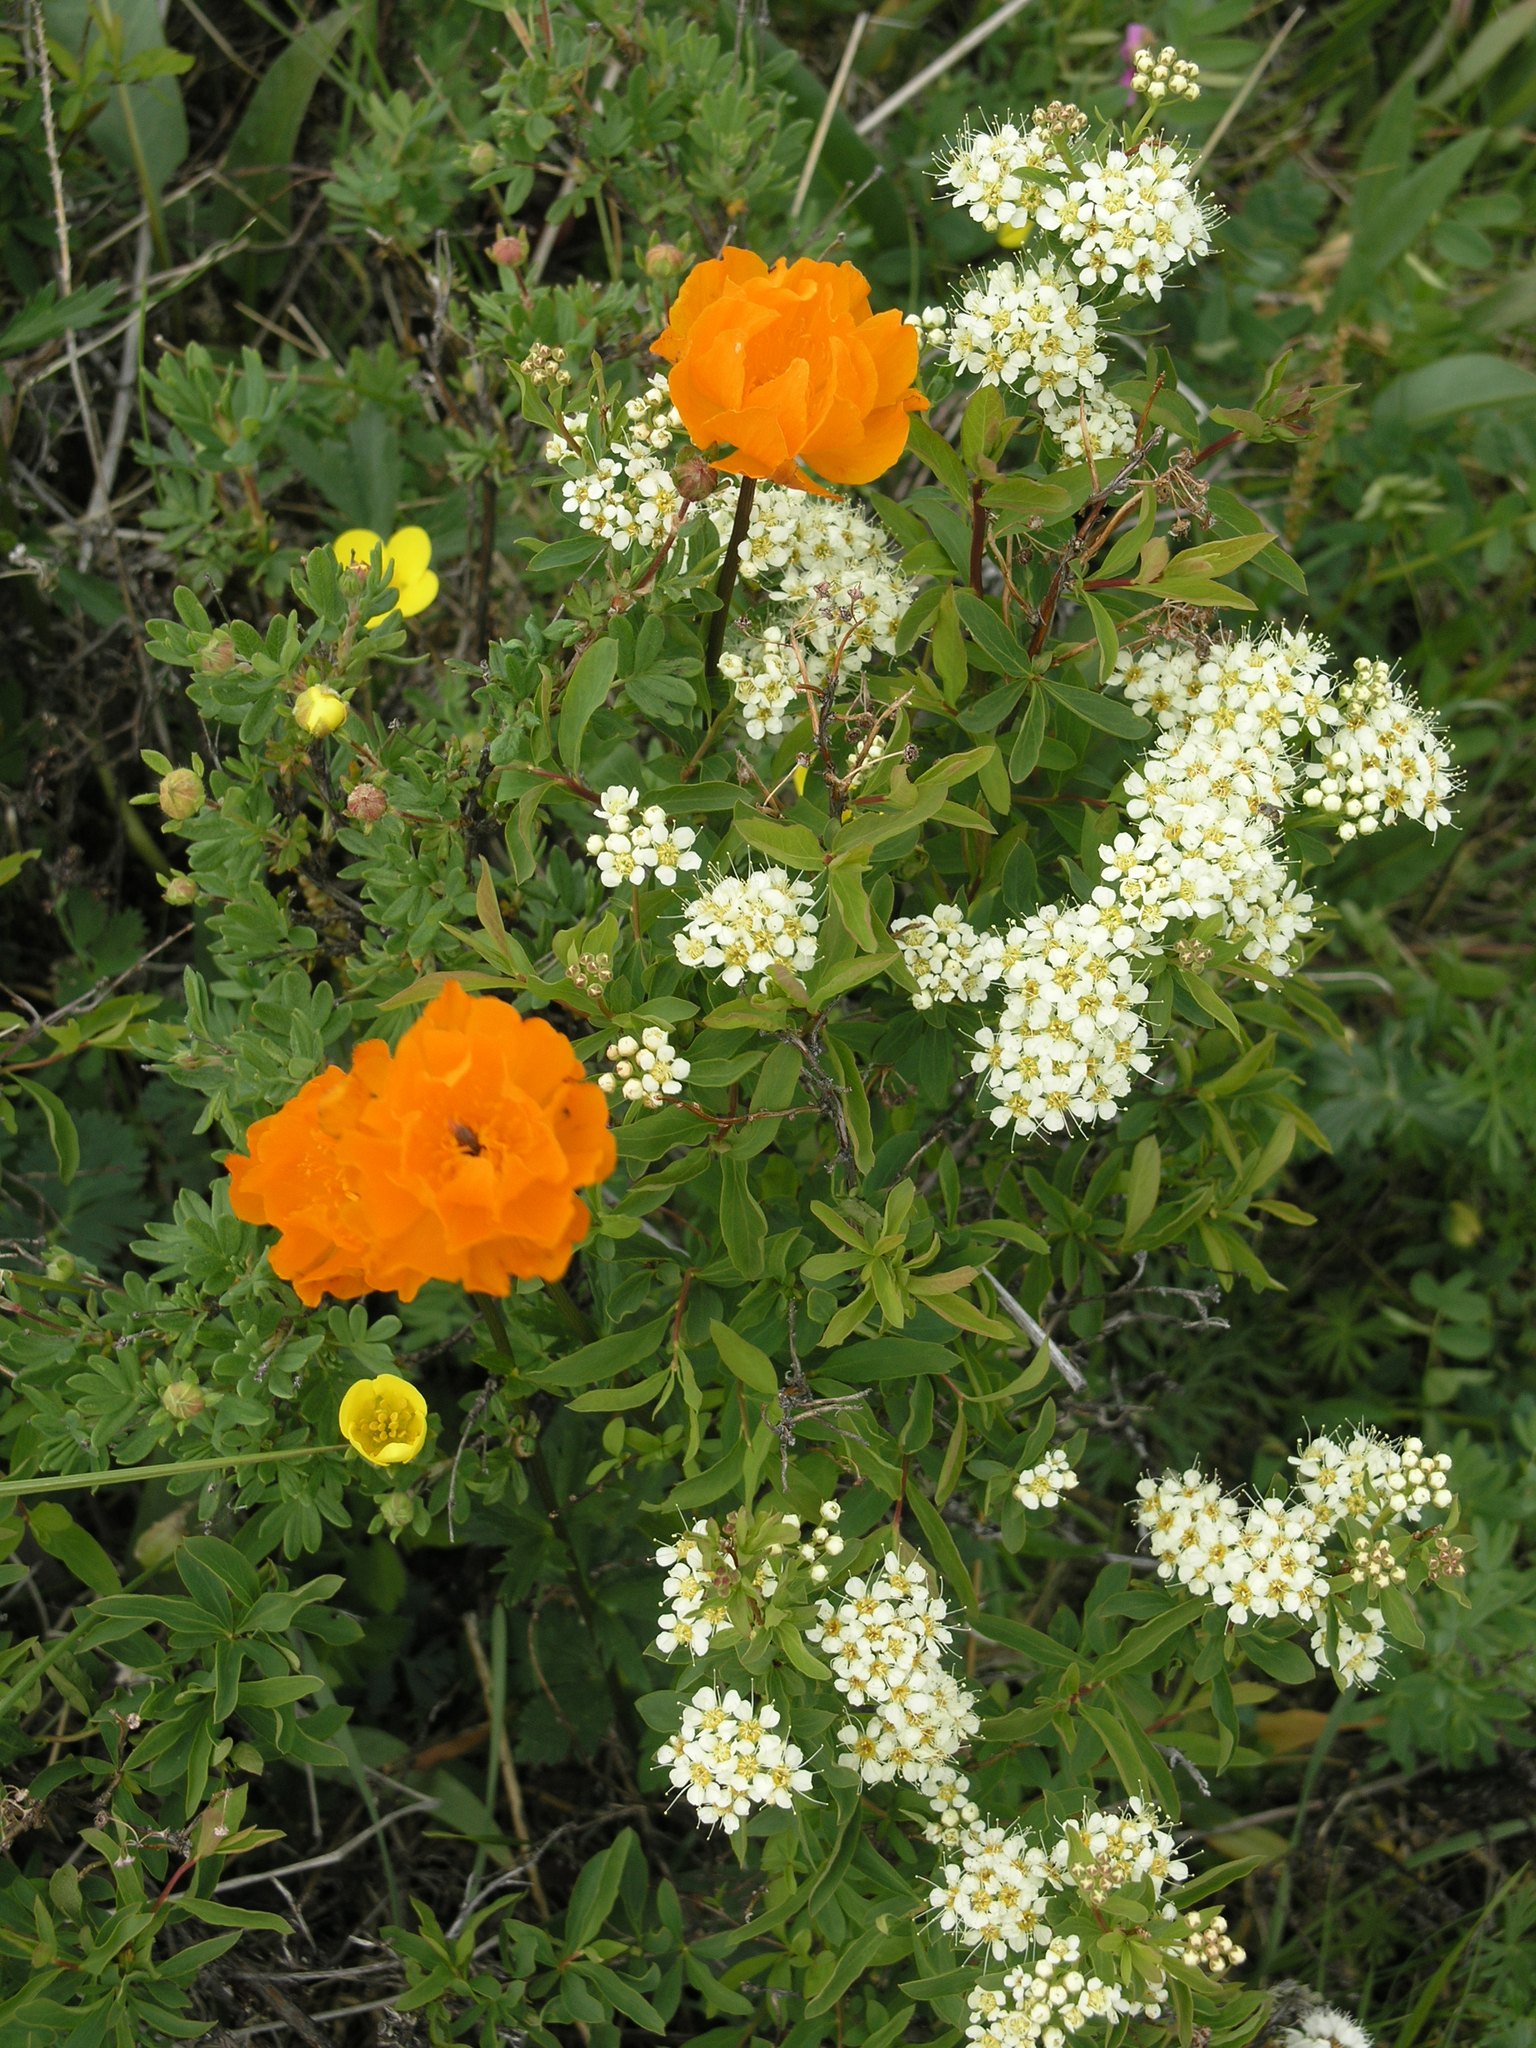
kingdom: Plantae
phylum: Tracheophyta
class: Magnoliopsida
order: Ranunculales
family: Ranunculaceae
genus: Trollius
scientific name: Trollius asiaticus
